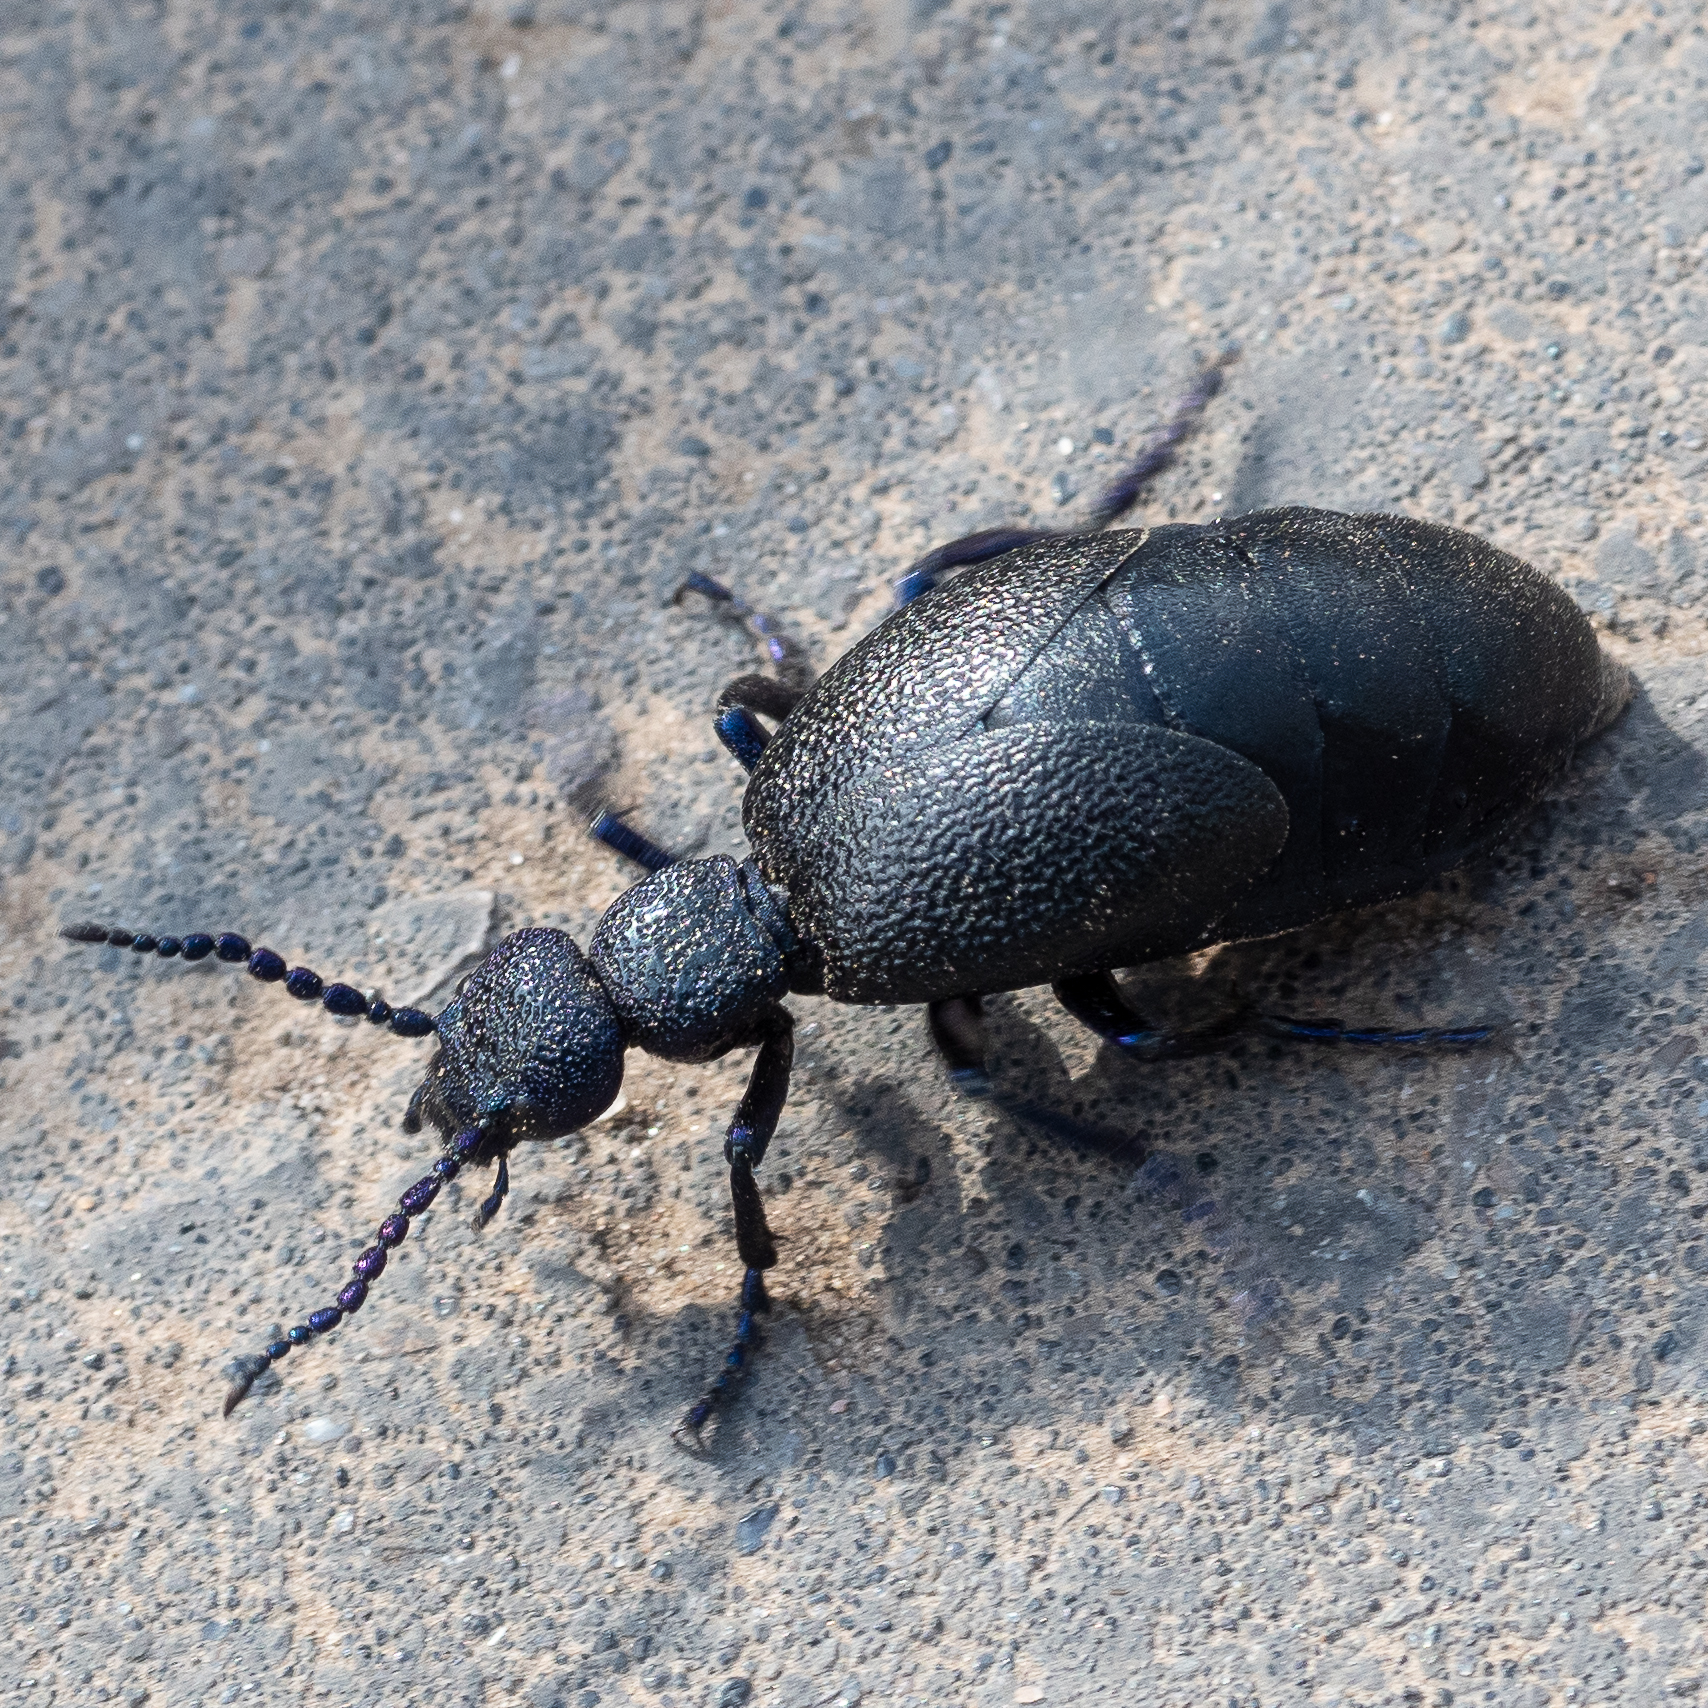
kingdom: Animalia
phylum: Arthropoda
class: Insecta
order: Coleoptera
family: Meloidae
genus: Meloe
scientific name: Meloe proscarabaeus
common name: Black oil-beetle
